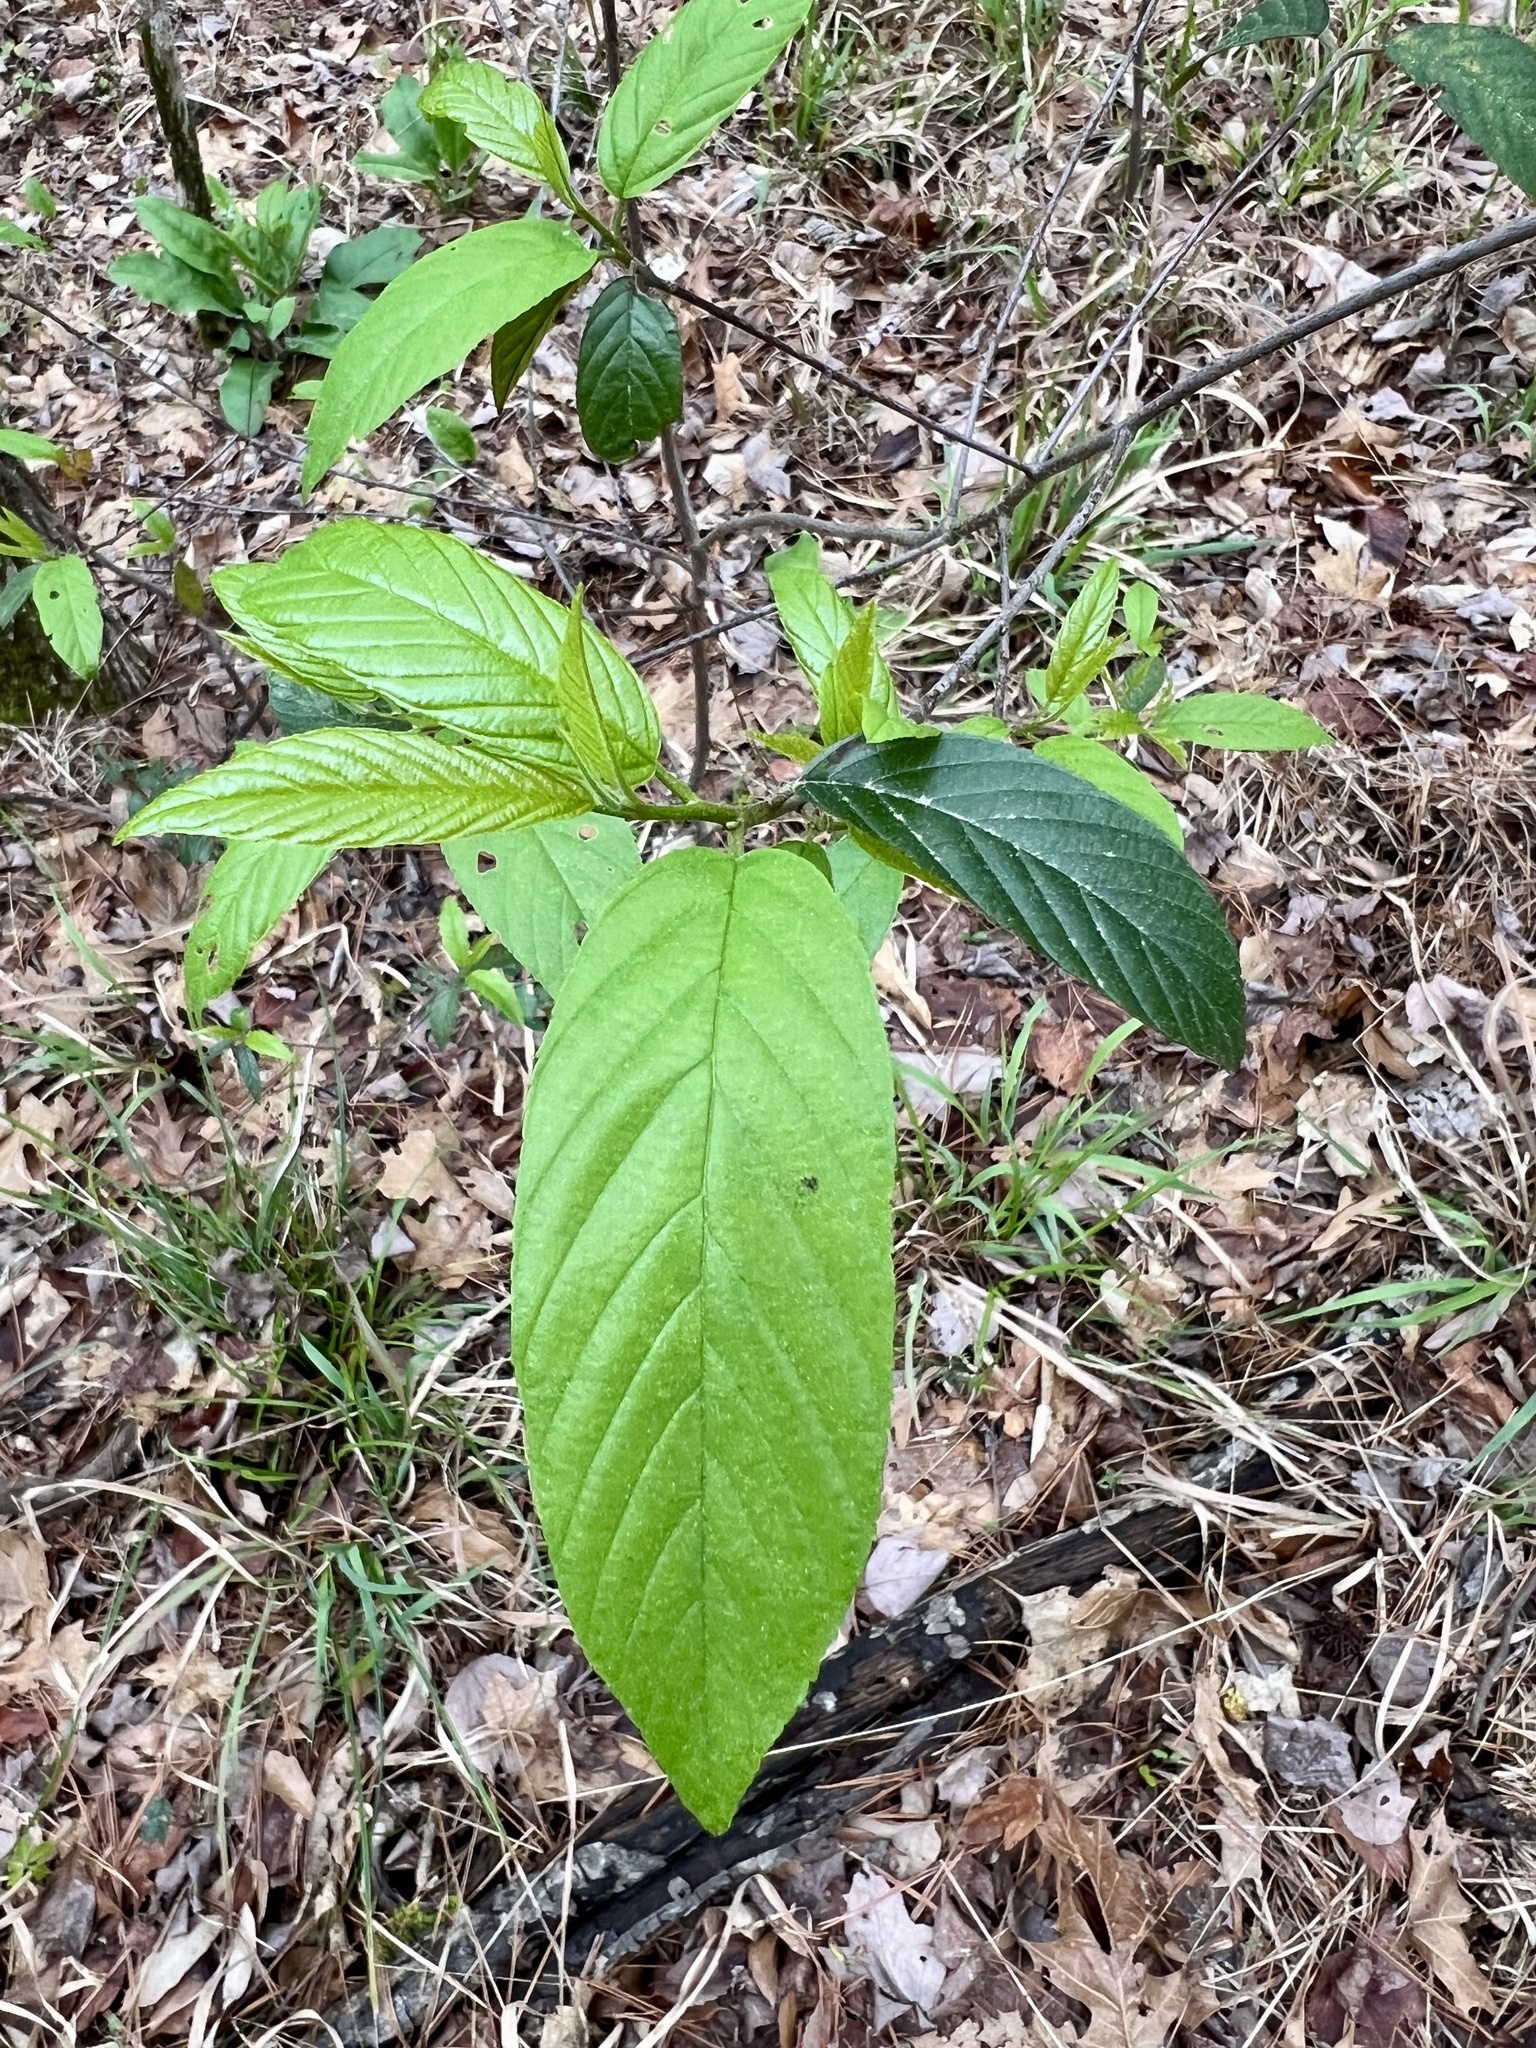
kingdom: Plantae
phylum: Tracheophyta
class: Magnoliopsida
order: Rosales
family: Rhamnaceae
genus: Frangula
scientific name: Frangula caroliniana
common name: Carolina buckthorn
